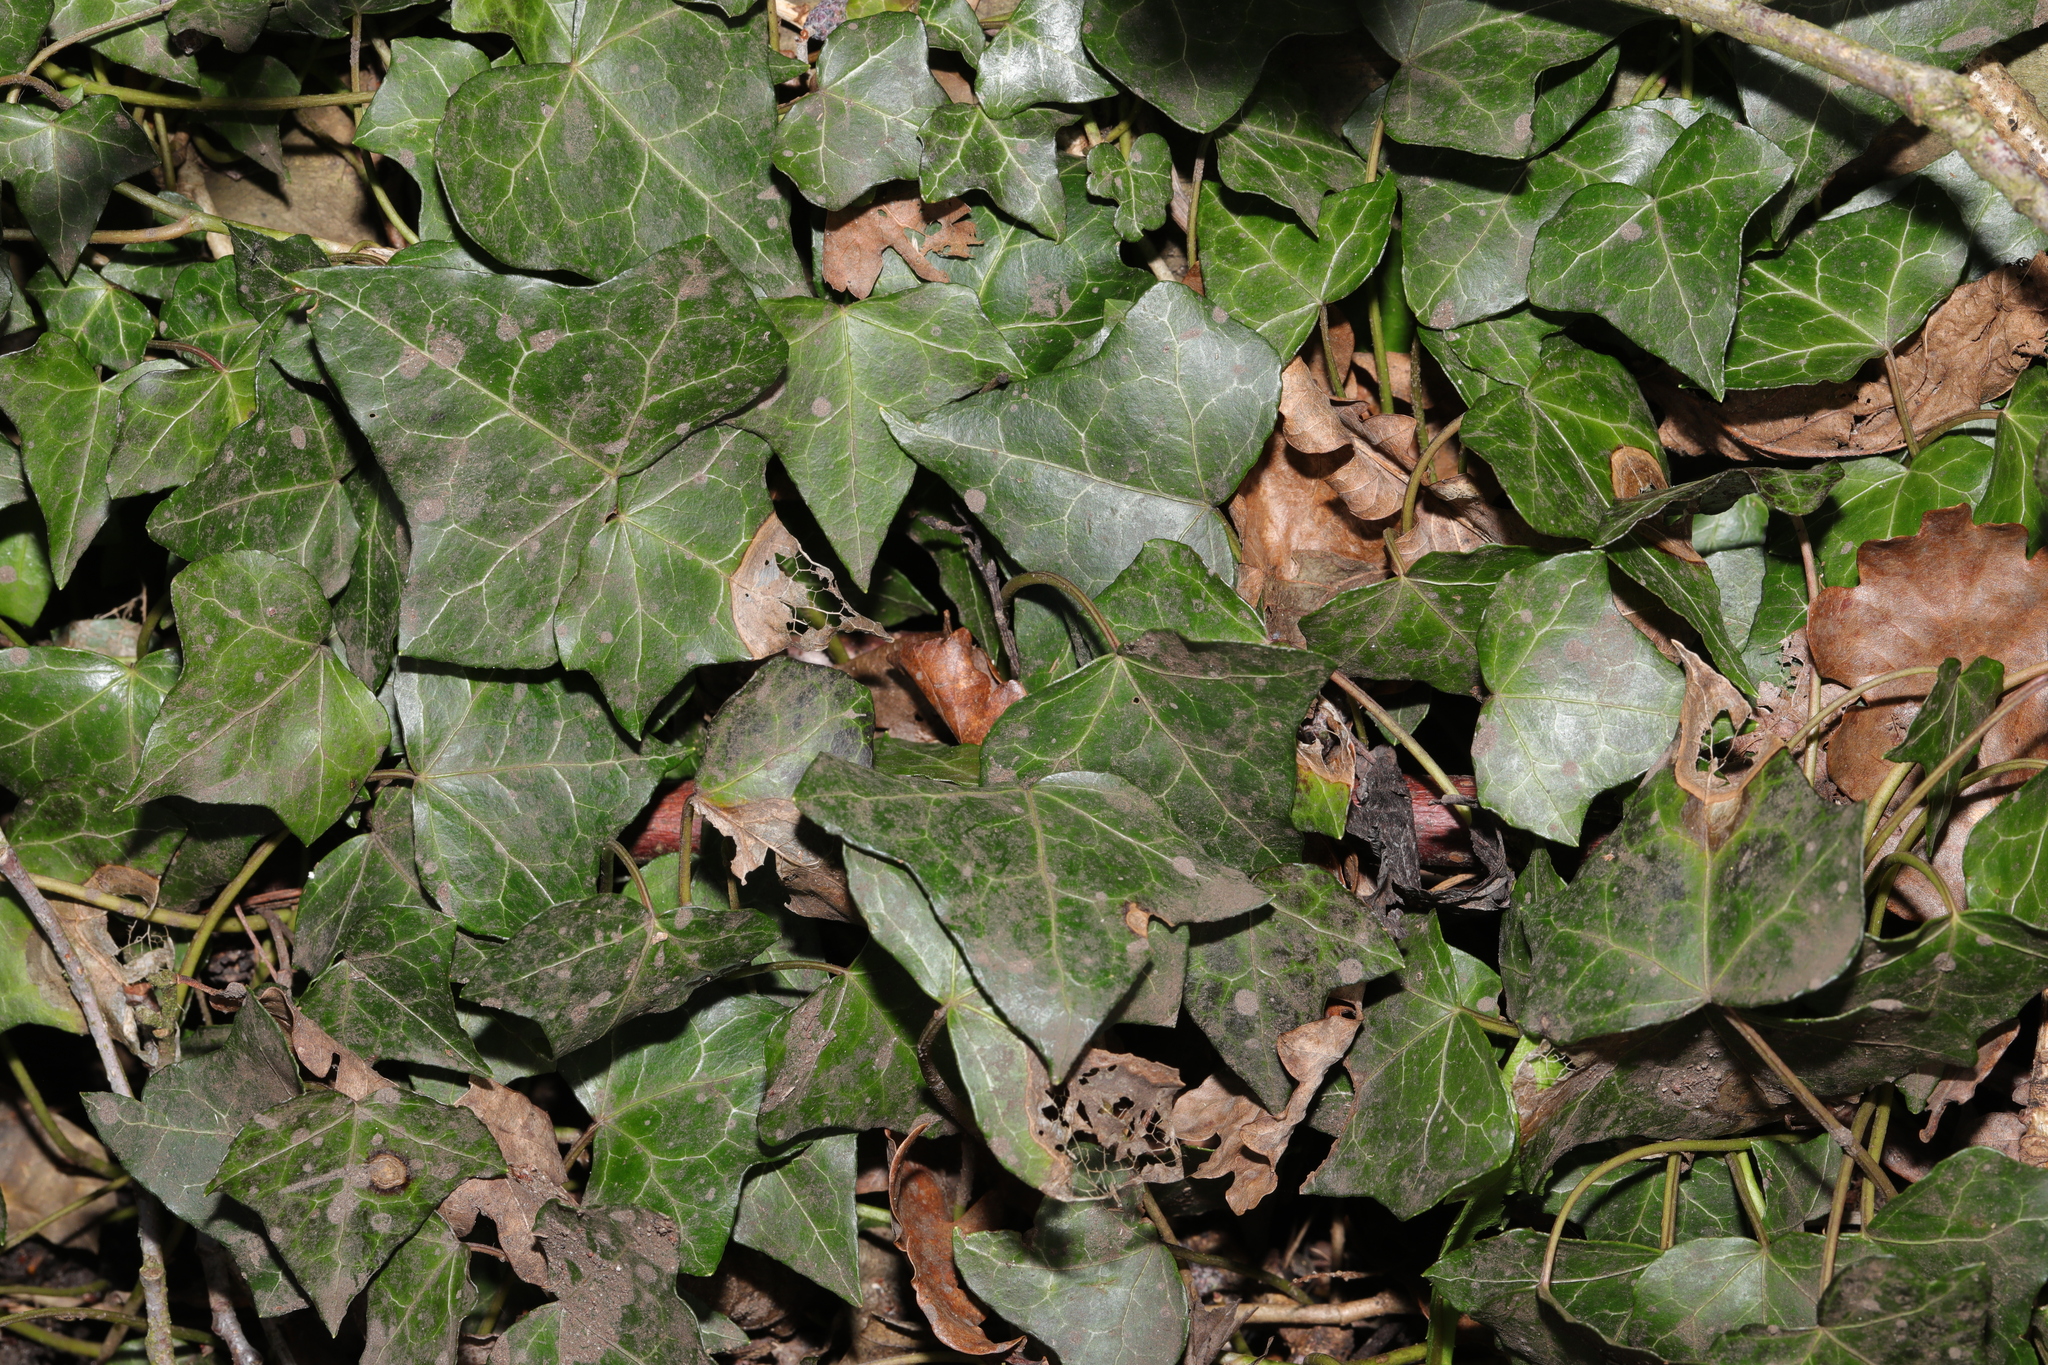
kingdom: Plantae
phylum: Tracheophyta
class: Magnoliopsida
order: Apiales
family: Araliaceae
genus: Hedera
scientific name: Hedera helix
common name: Ivy
